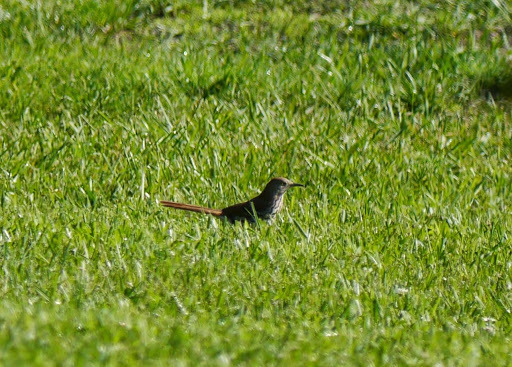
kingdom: Animalia
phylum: Chordata
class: Aves
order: Passeriformes
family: Mimidae
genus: Toxostoma
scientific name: Toxostoma rufum
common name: Brown thrasher
